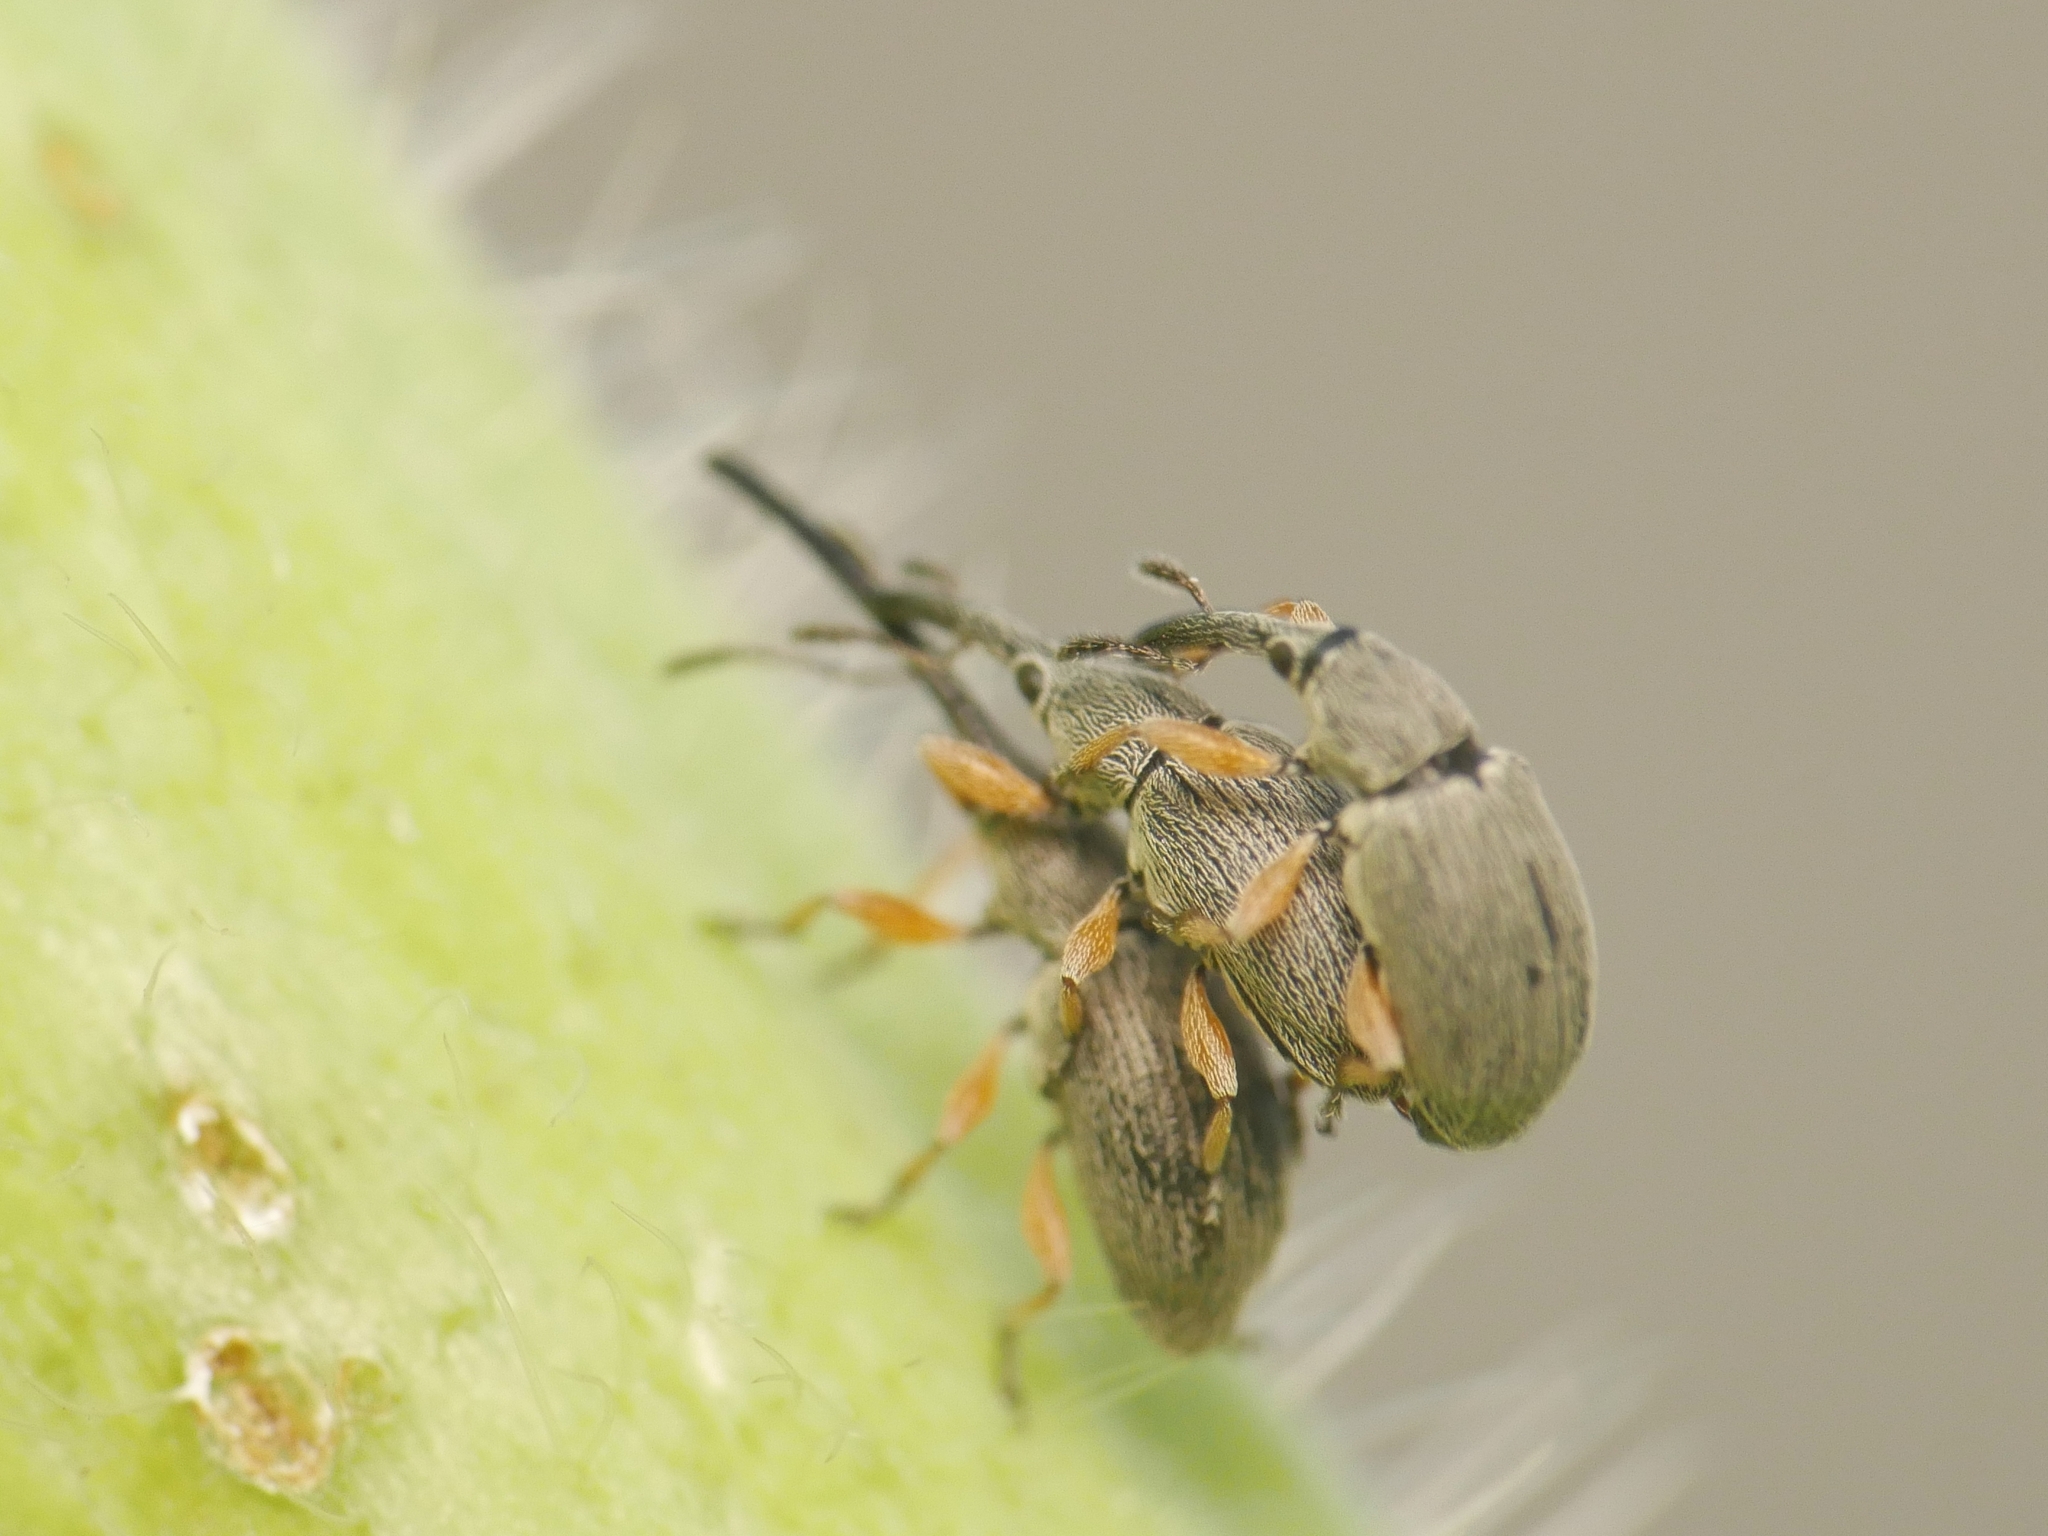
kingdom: Animalia
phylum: Arthropoda
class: Insecta
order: Coleoptera
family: Brentidae
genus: Rhopalapion
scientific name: Rhopalapion longirostre
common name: Hollyhock weevil
